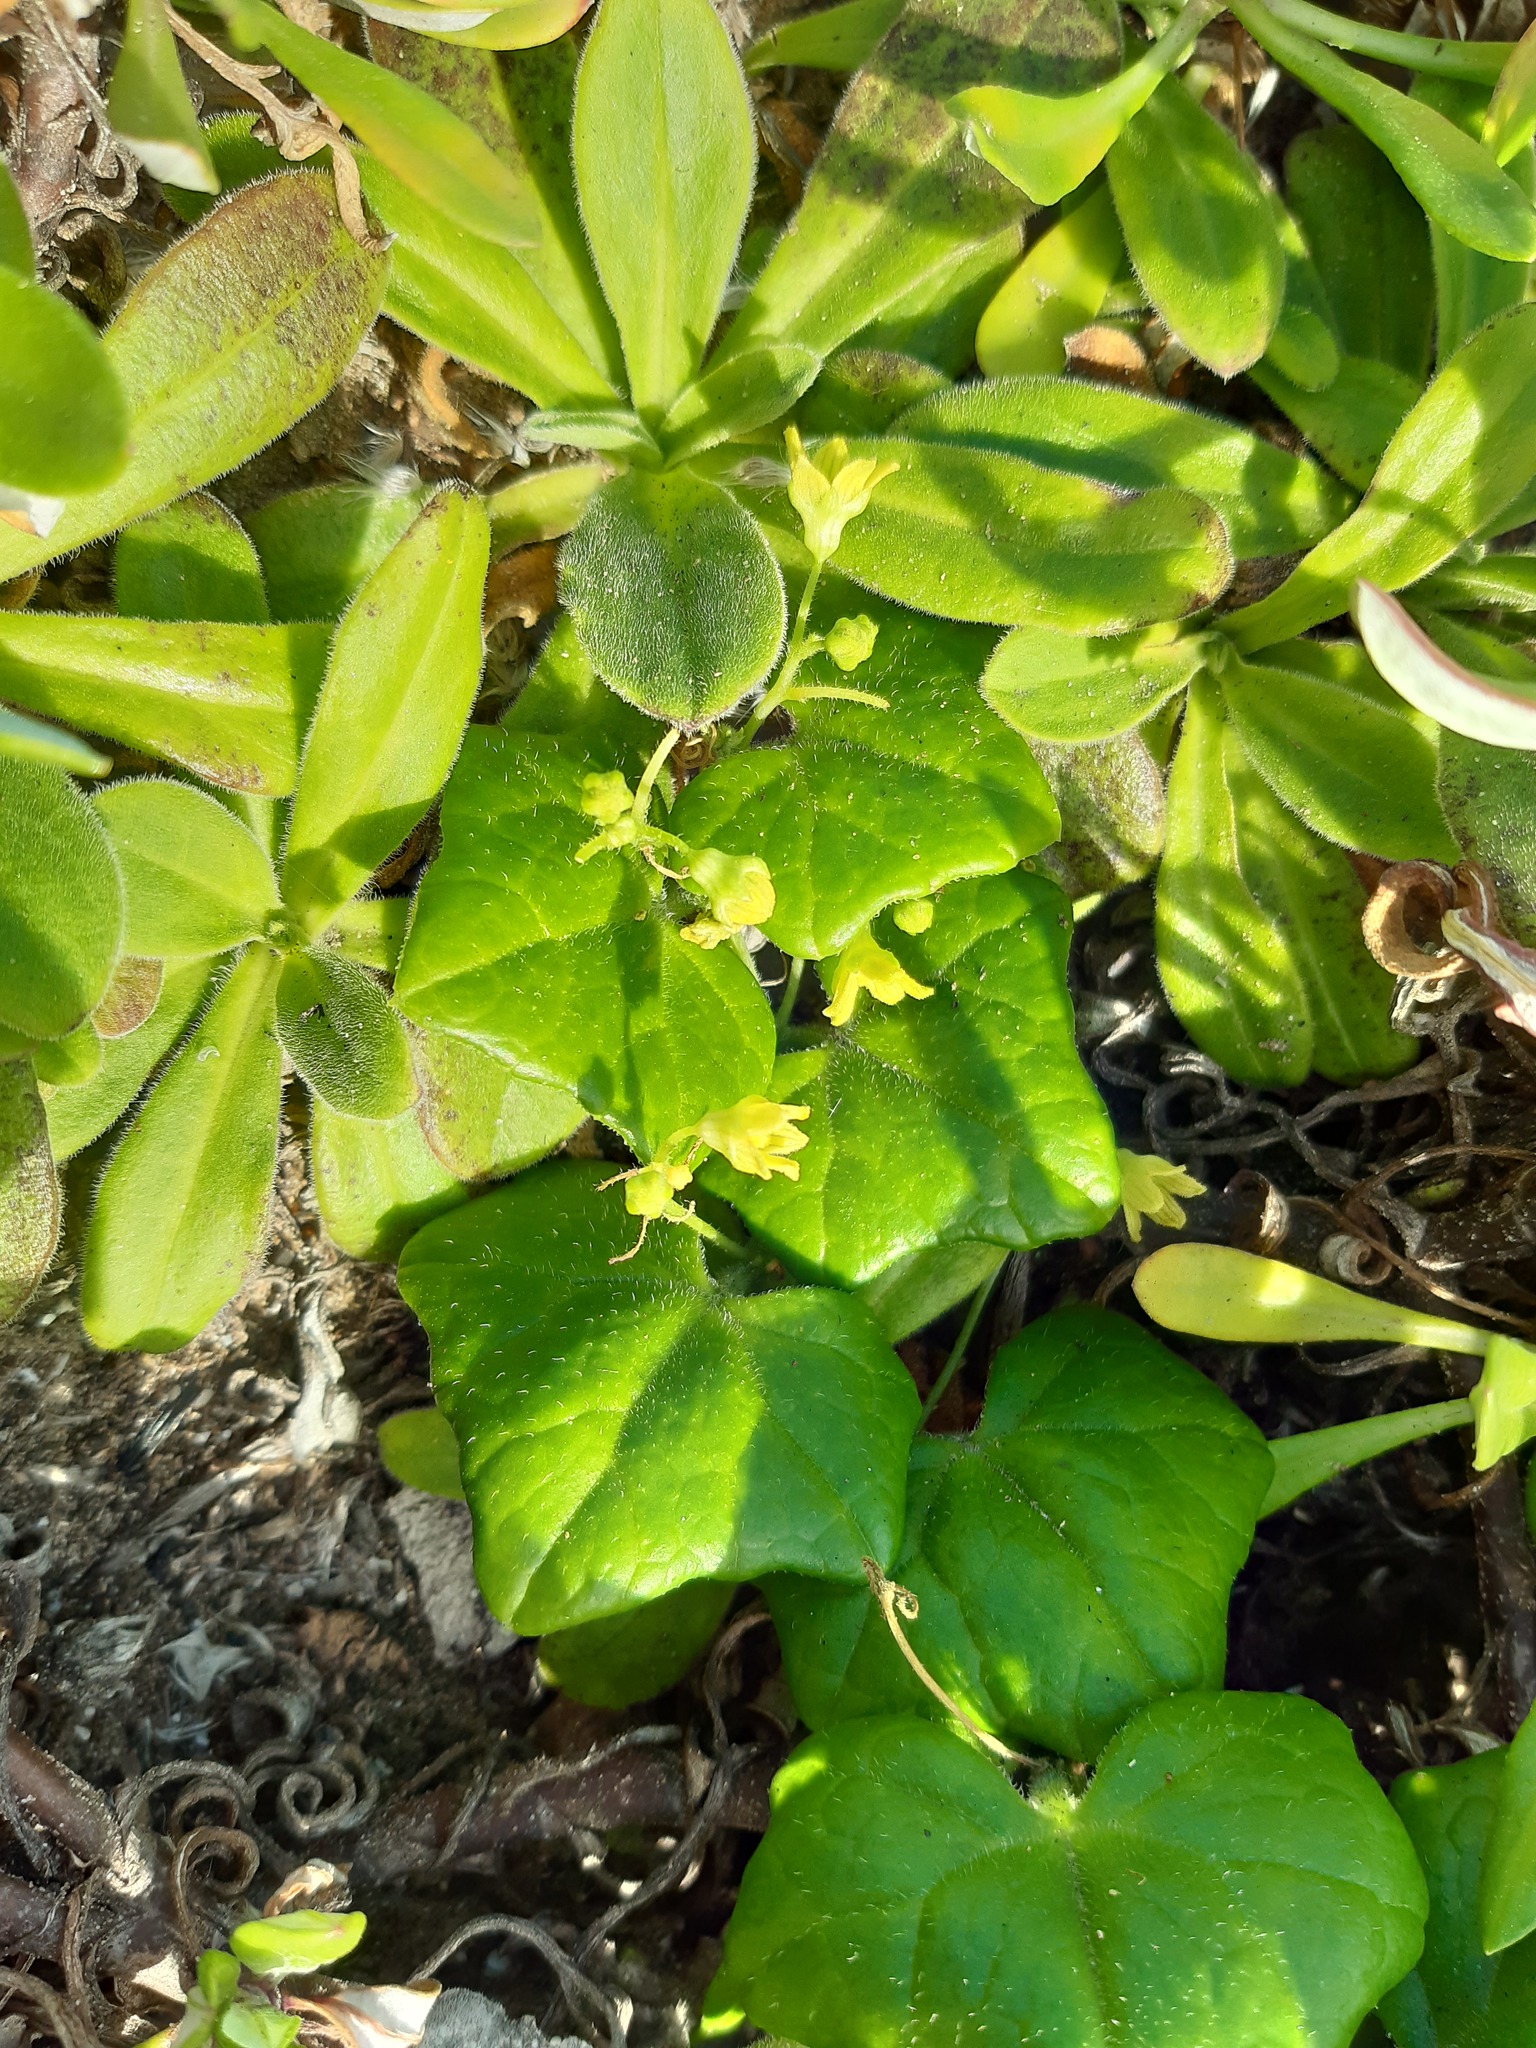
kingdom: Plantae
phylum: Tracheophyta
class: Magnoliopsida
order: Cucurbitales
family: Cucurbitaceae
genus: Kedrostis
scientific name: Kedrostis nana
